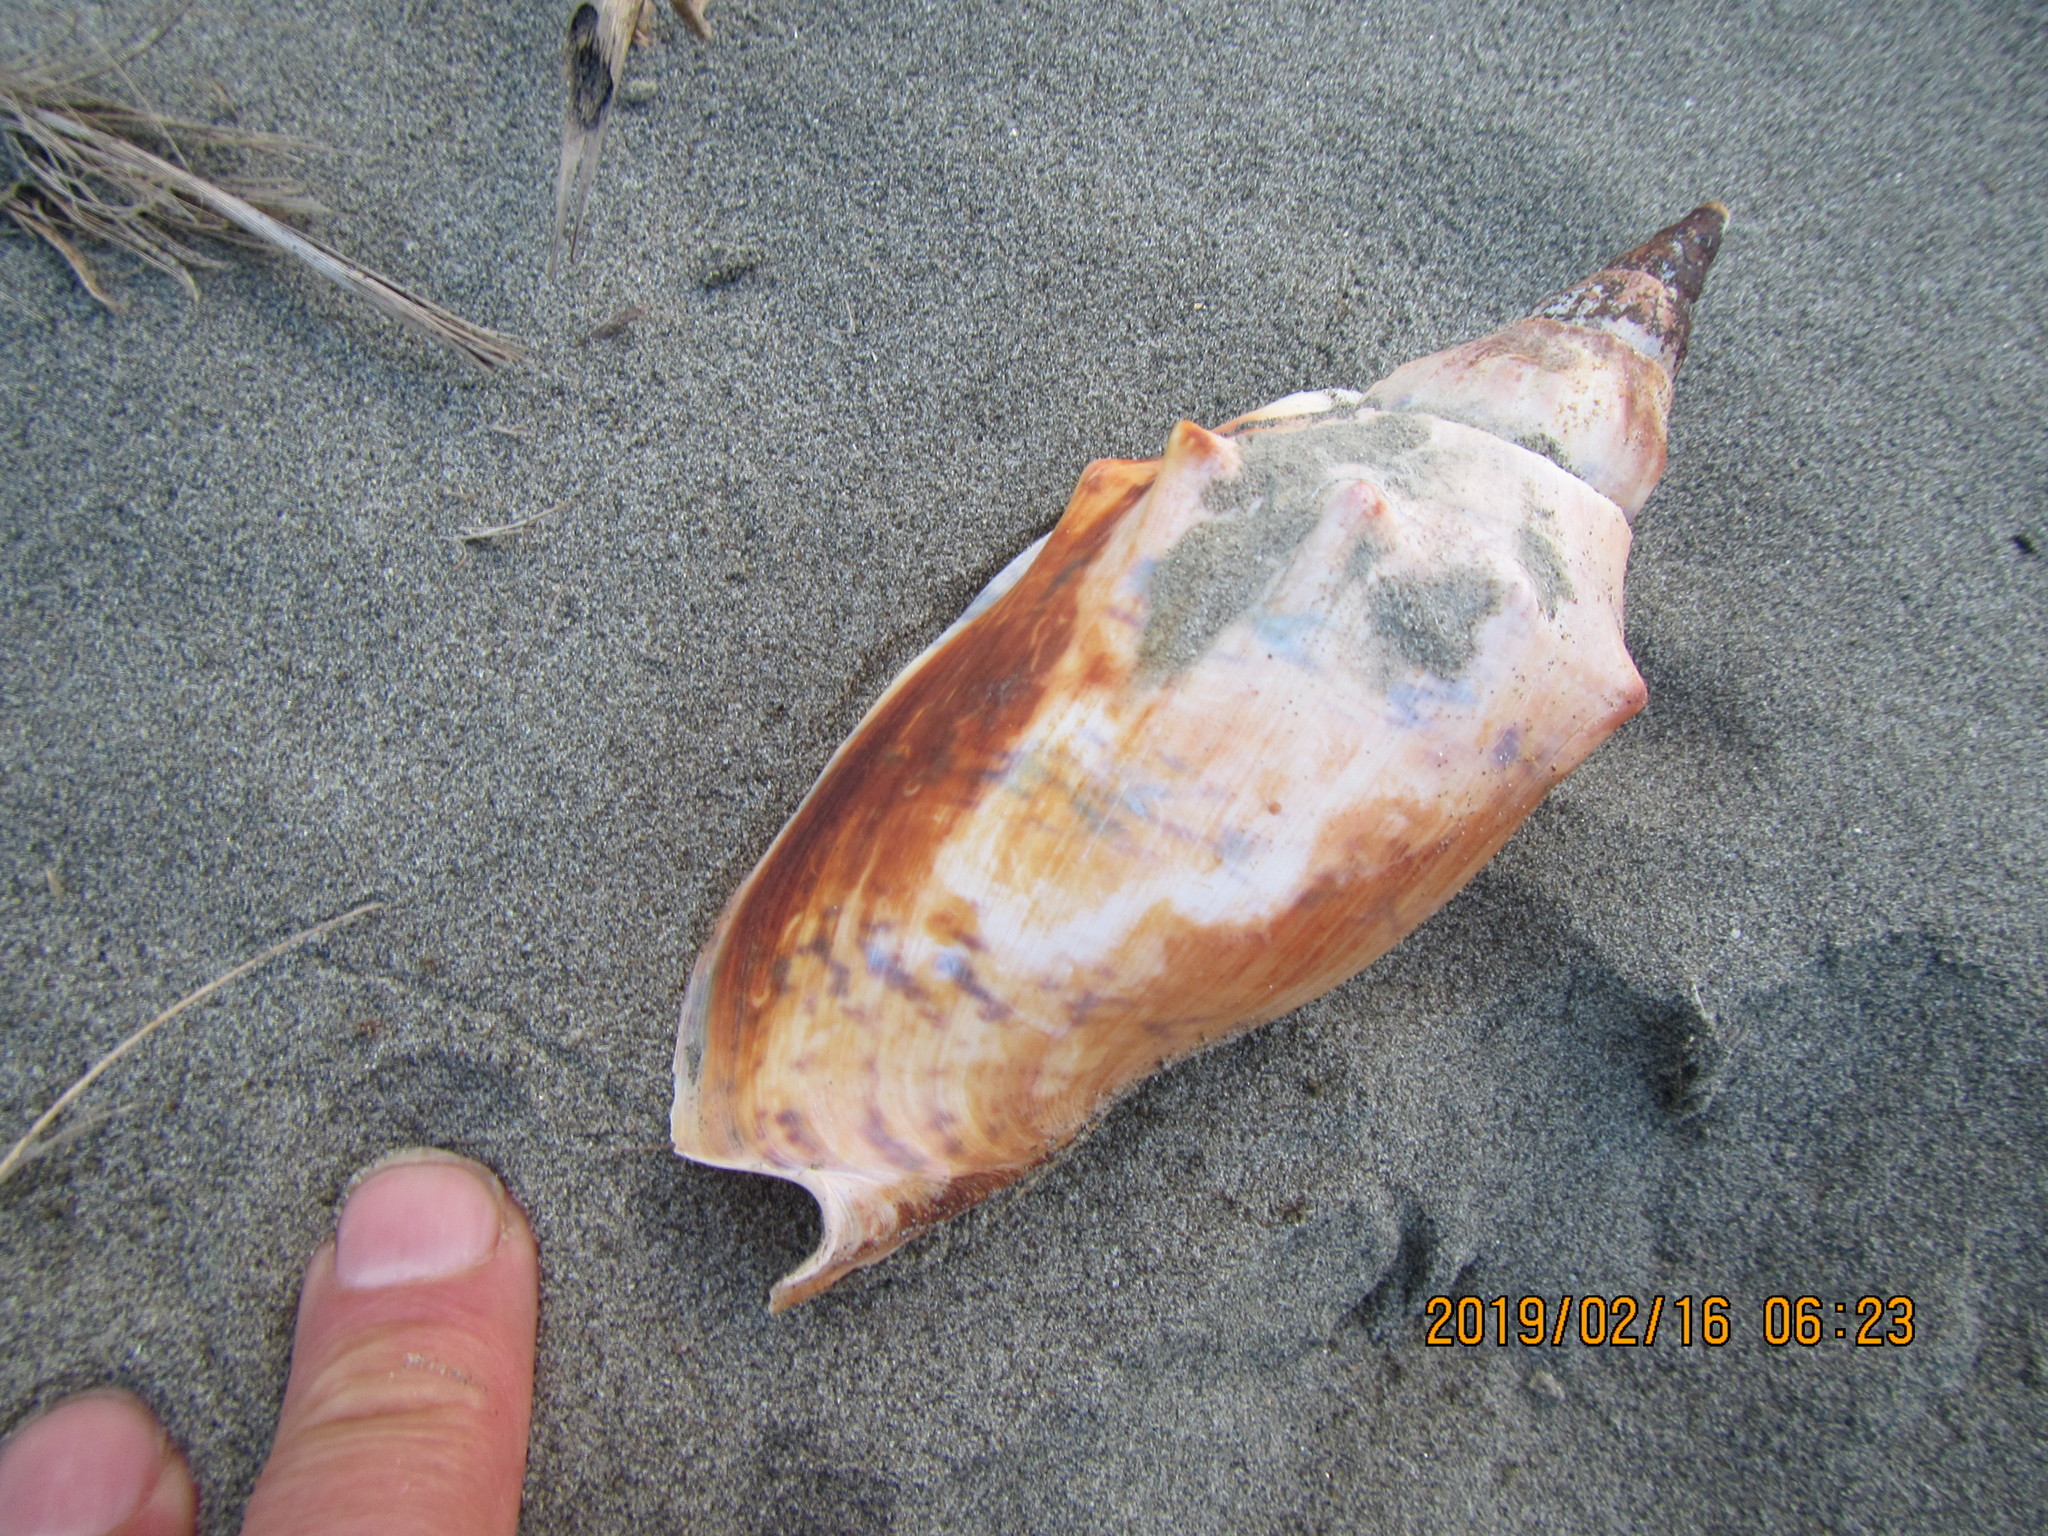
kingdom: Animalia
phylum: Mollusca
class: Gastropoda
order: Neogastropoda
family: Volutidae
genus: Alcithoe
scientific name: Alcithoe arabica
